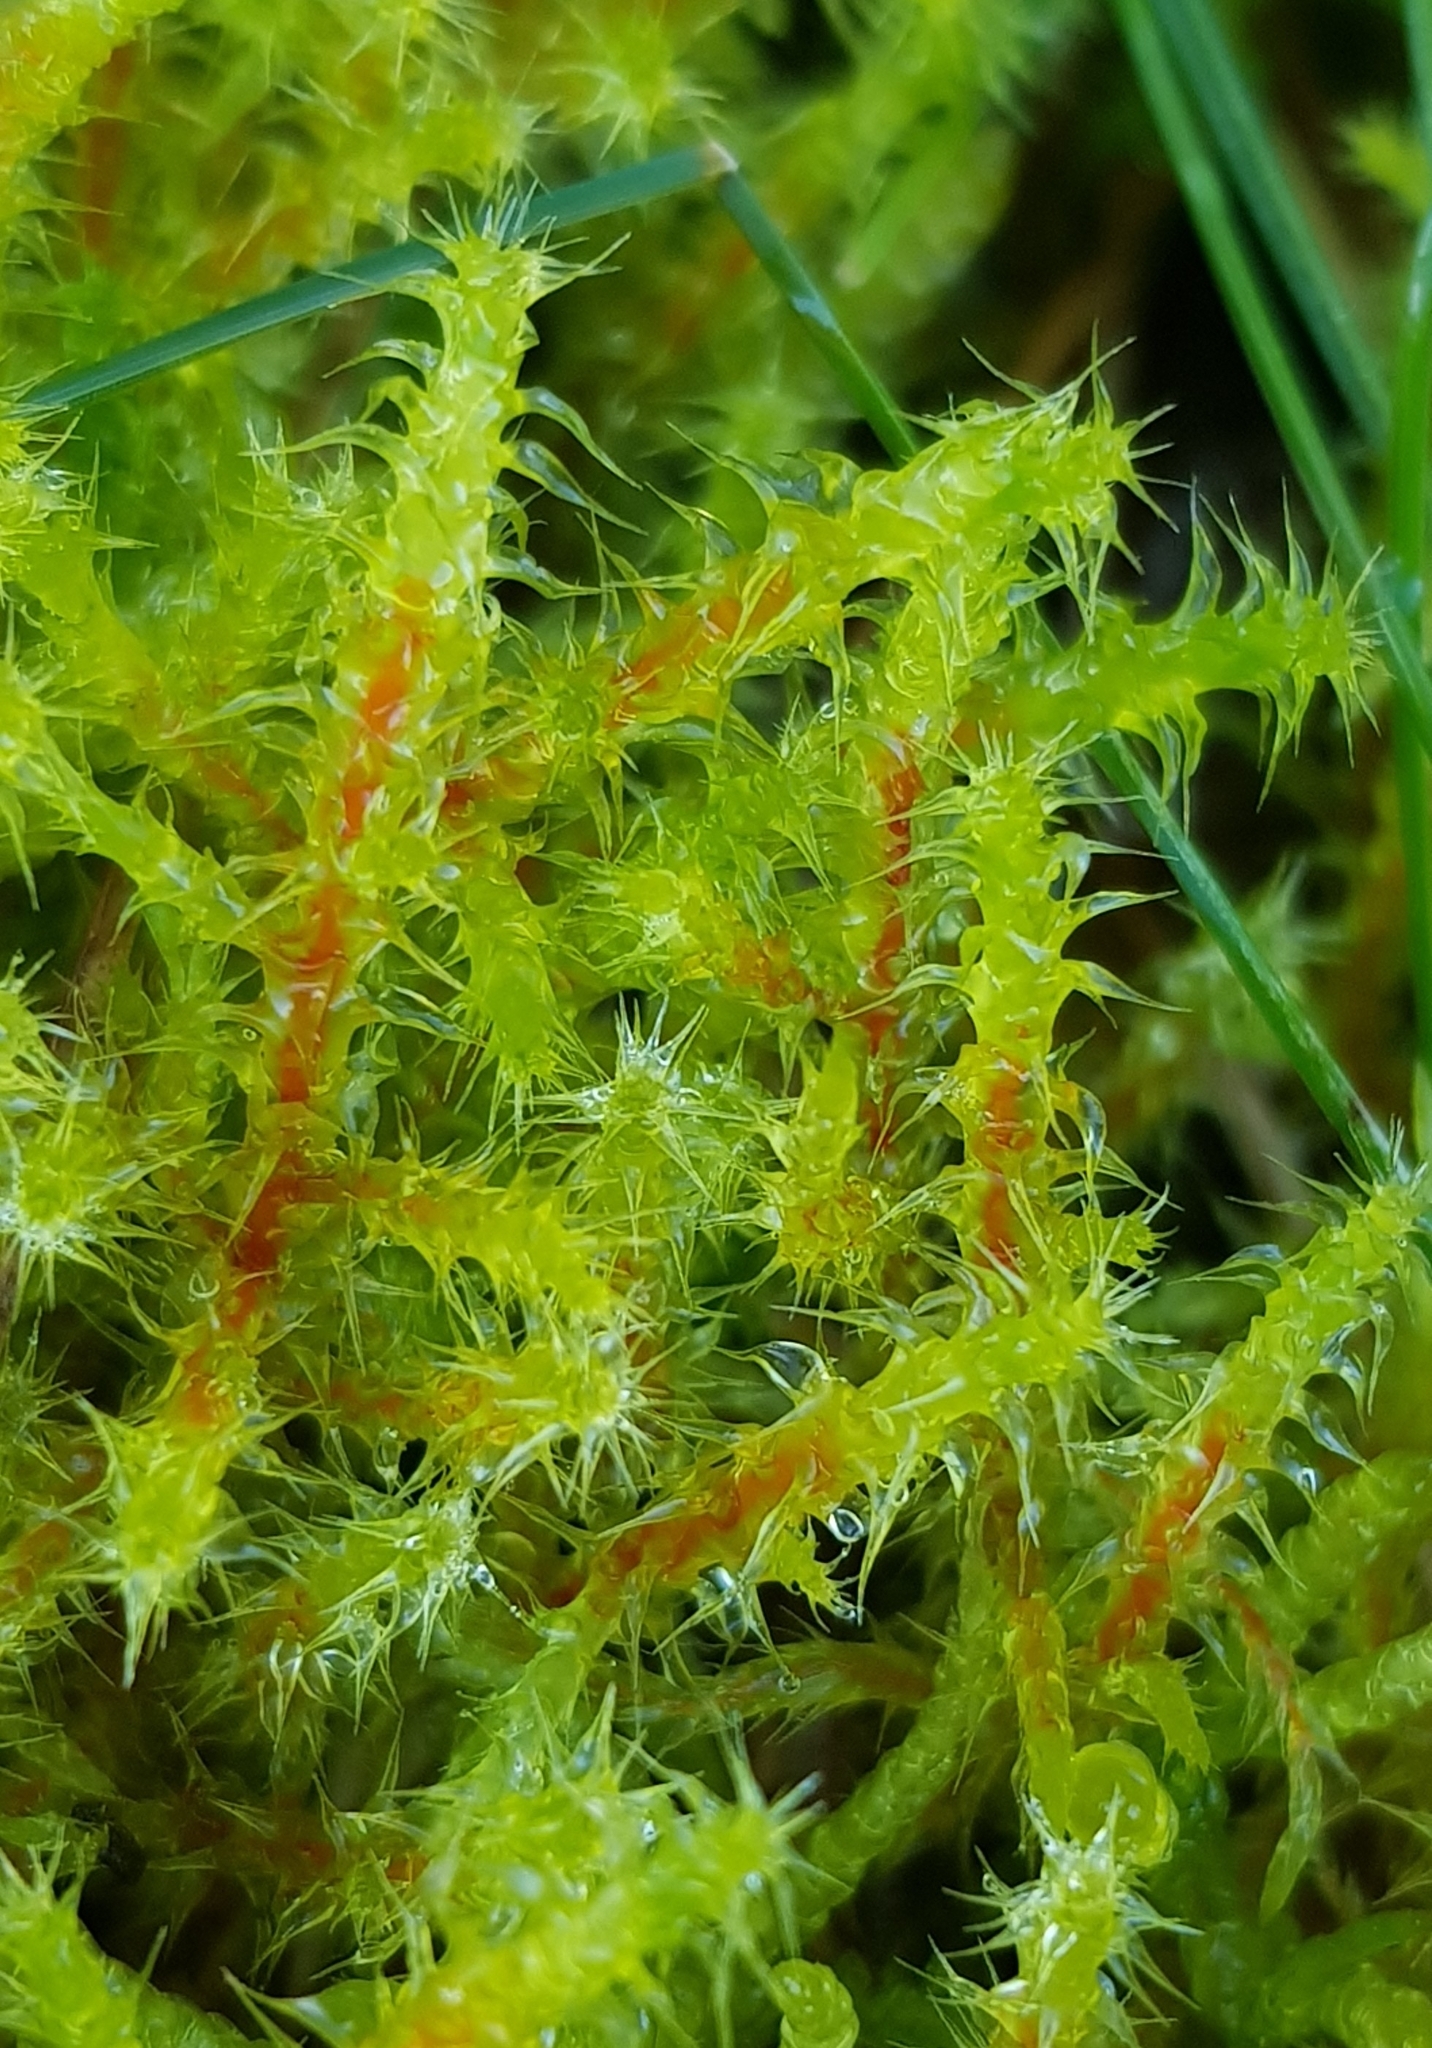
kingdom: Plantae
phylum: Bryophyta
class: Bryopsida
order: Hypnales
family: Hylocomiaceae
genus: Rhytidiadelphus
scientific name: Rhytidiadelphus squarrosus
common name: Springy turf-moss
